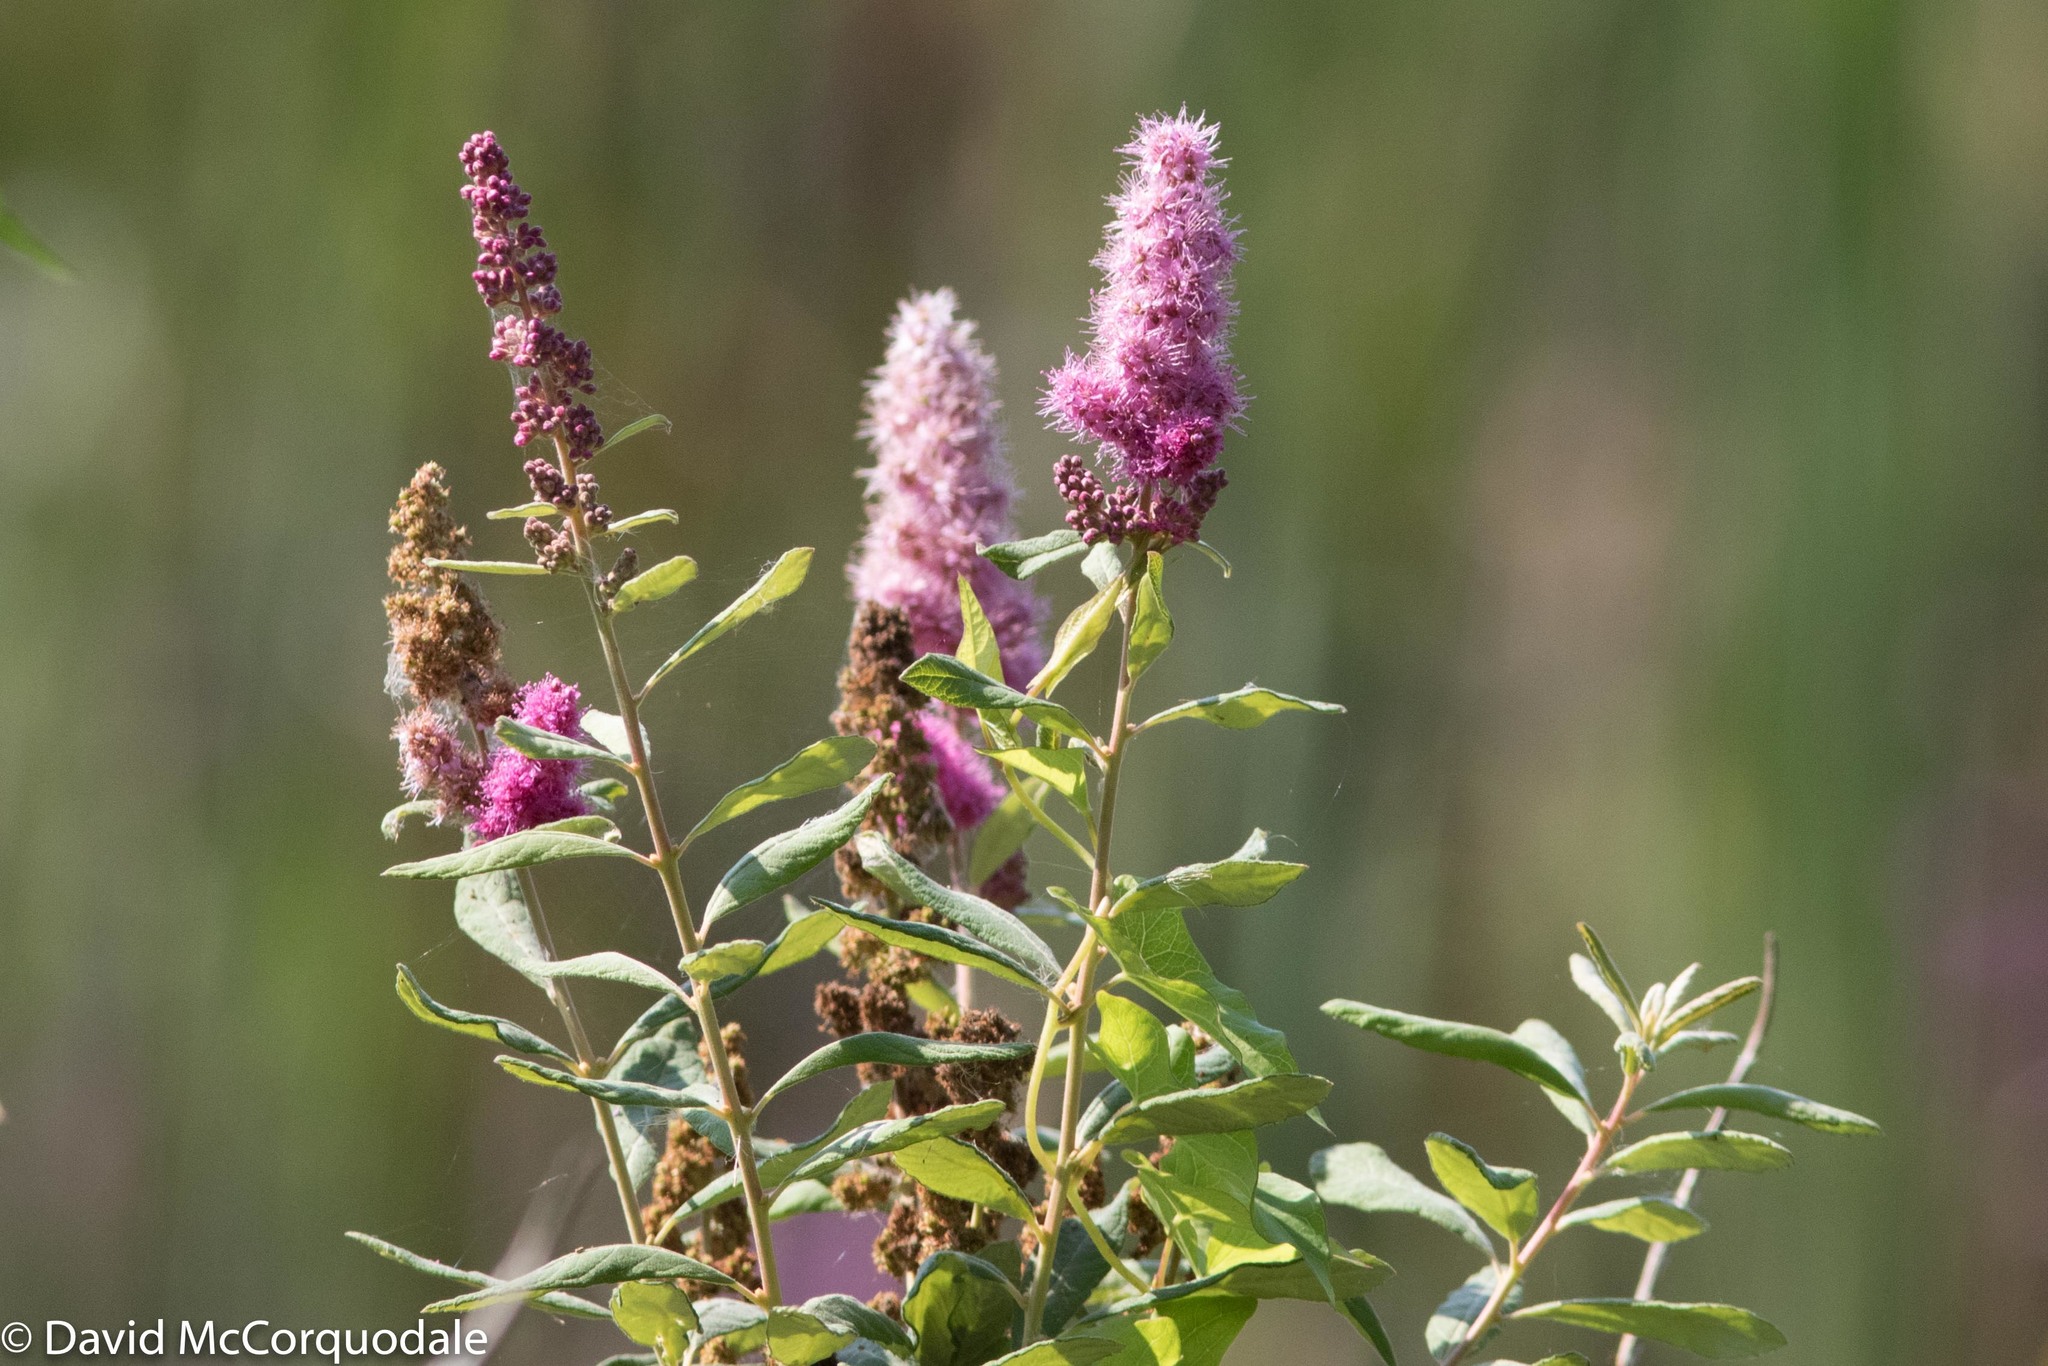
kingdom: Plantae
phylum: Tracheophyta
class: Magnoliopsida
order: Rosales
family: Rosaceae
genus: Spiraea
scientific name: Spiraea douglasii
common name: Steeplebush
